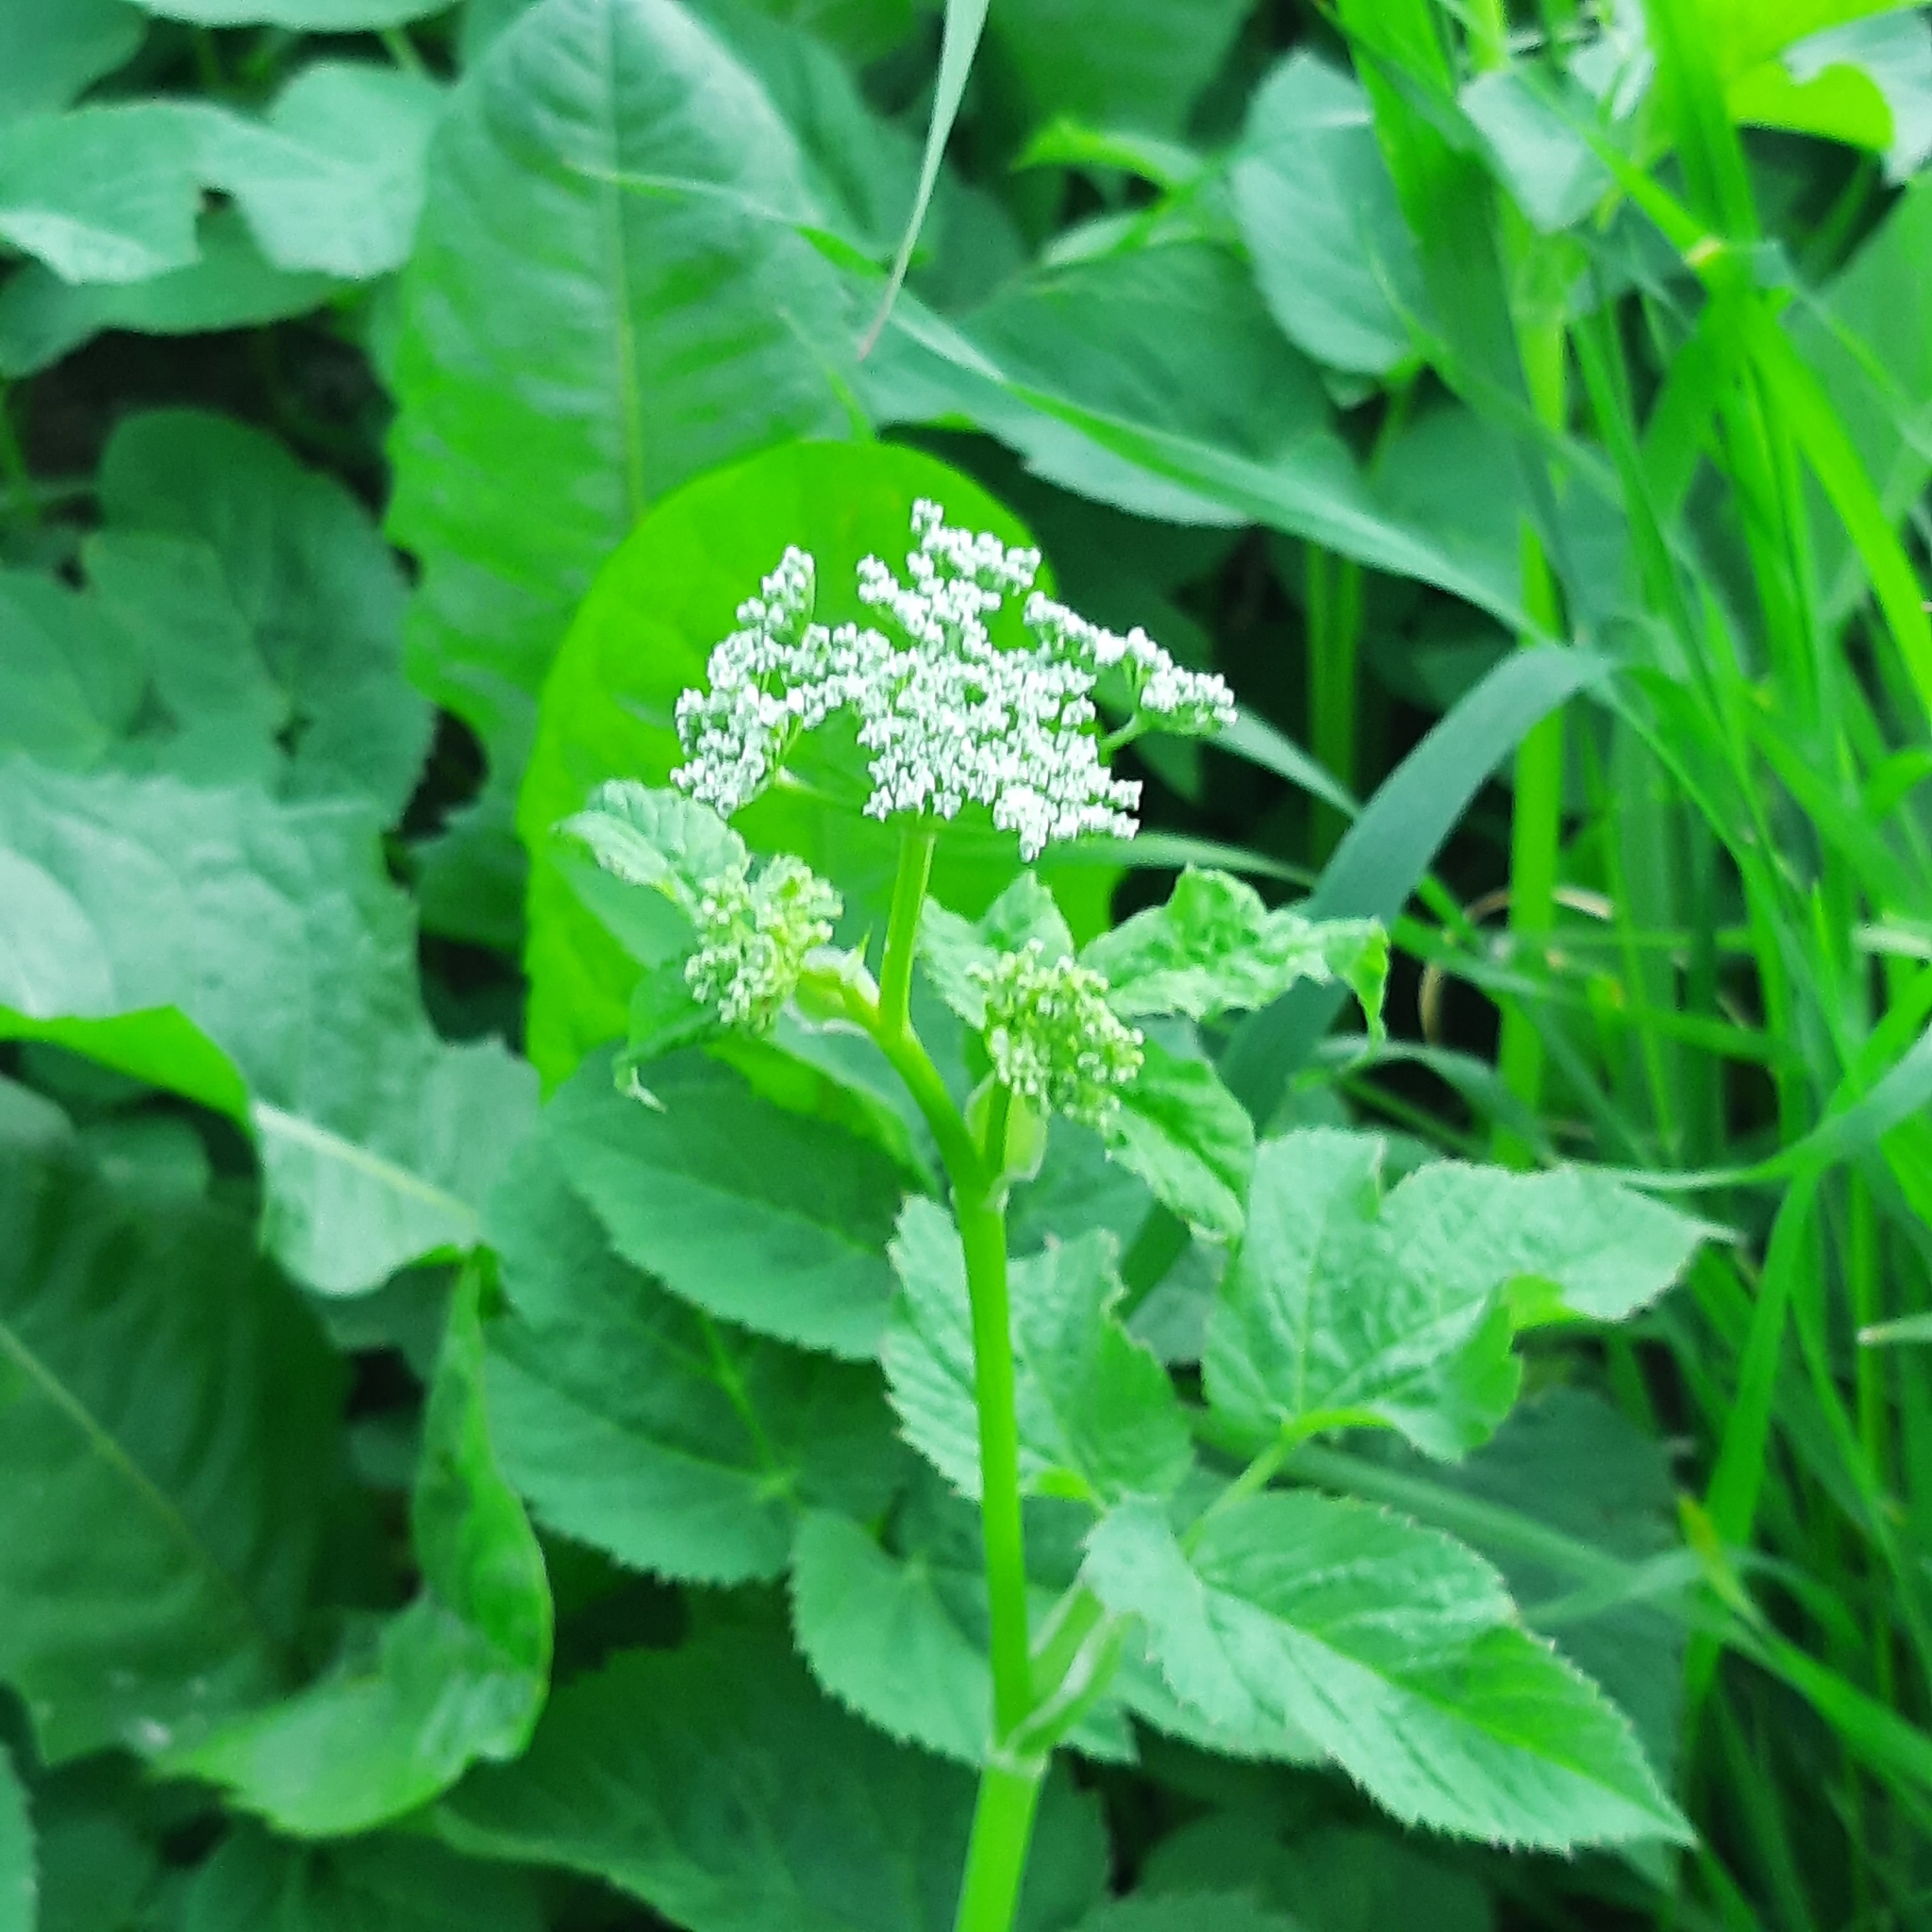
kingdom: Plantae
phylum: Tracheophyta
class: Magnoliopsida
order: Apiales
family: Apiaceae
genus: Aegopodium
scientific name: Aegopodium podagraria
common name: Ground-elder
